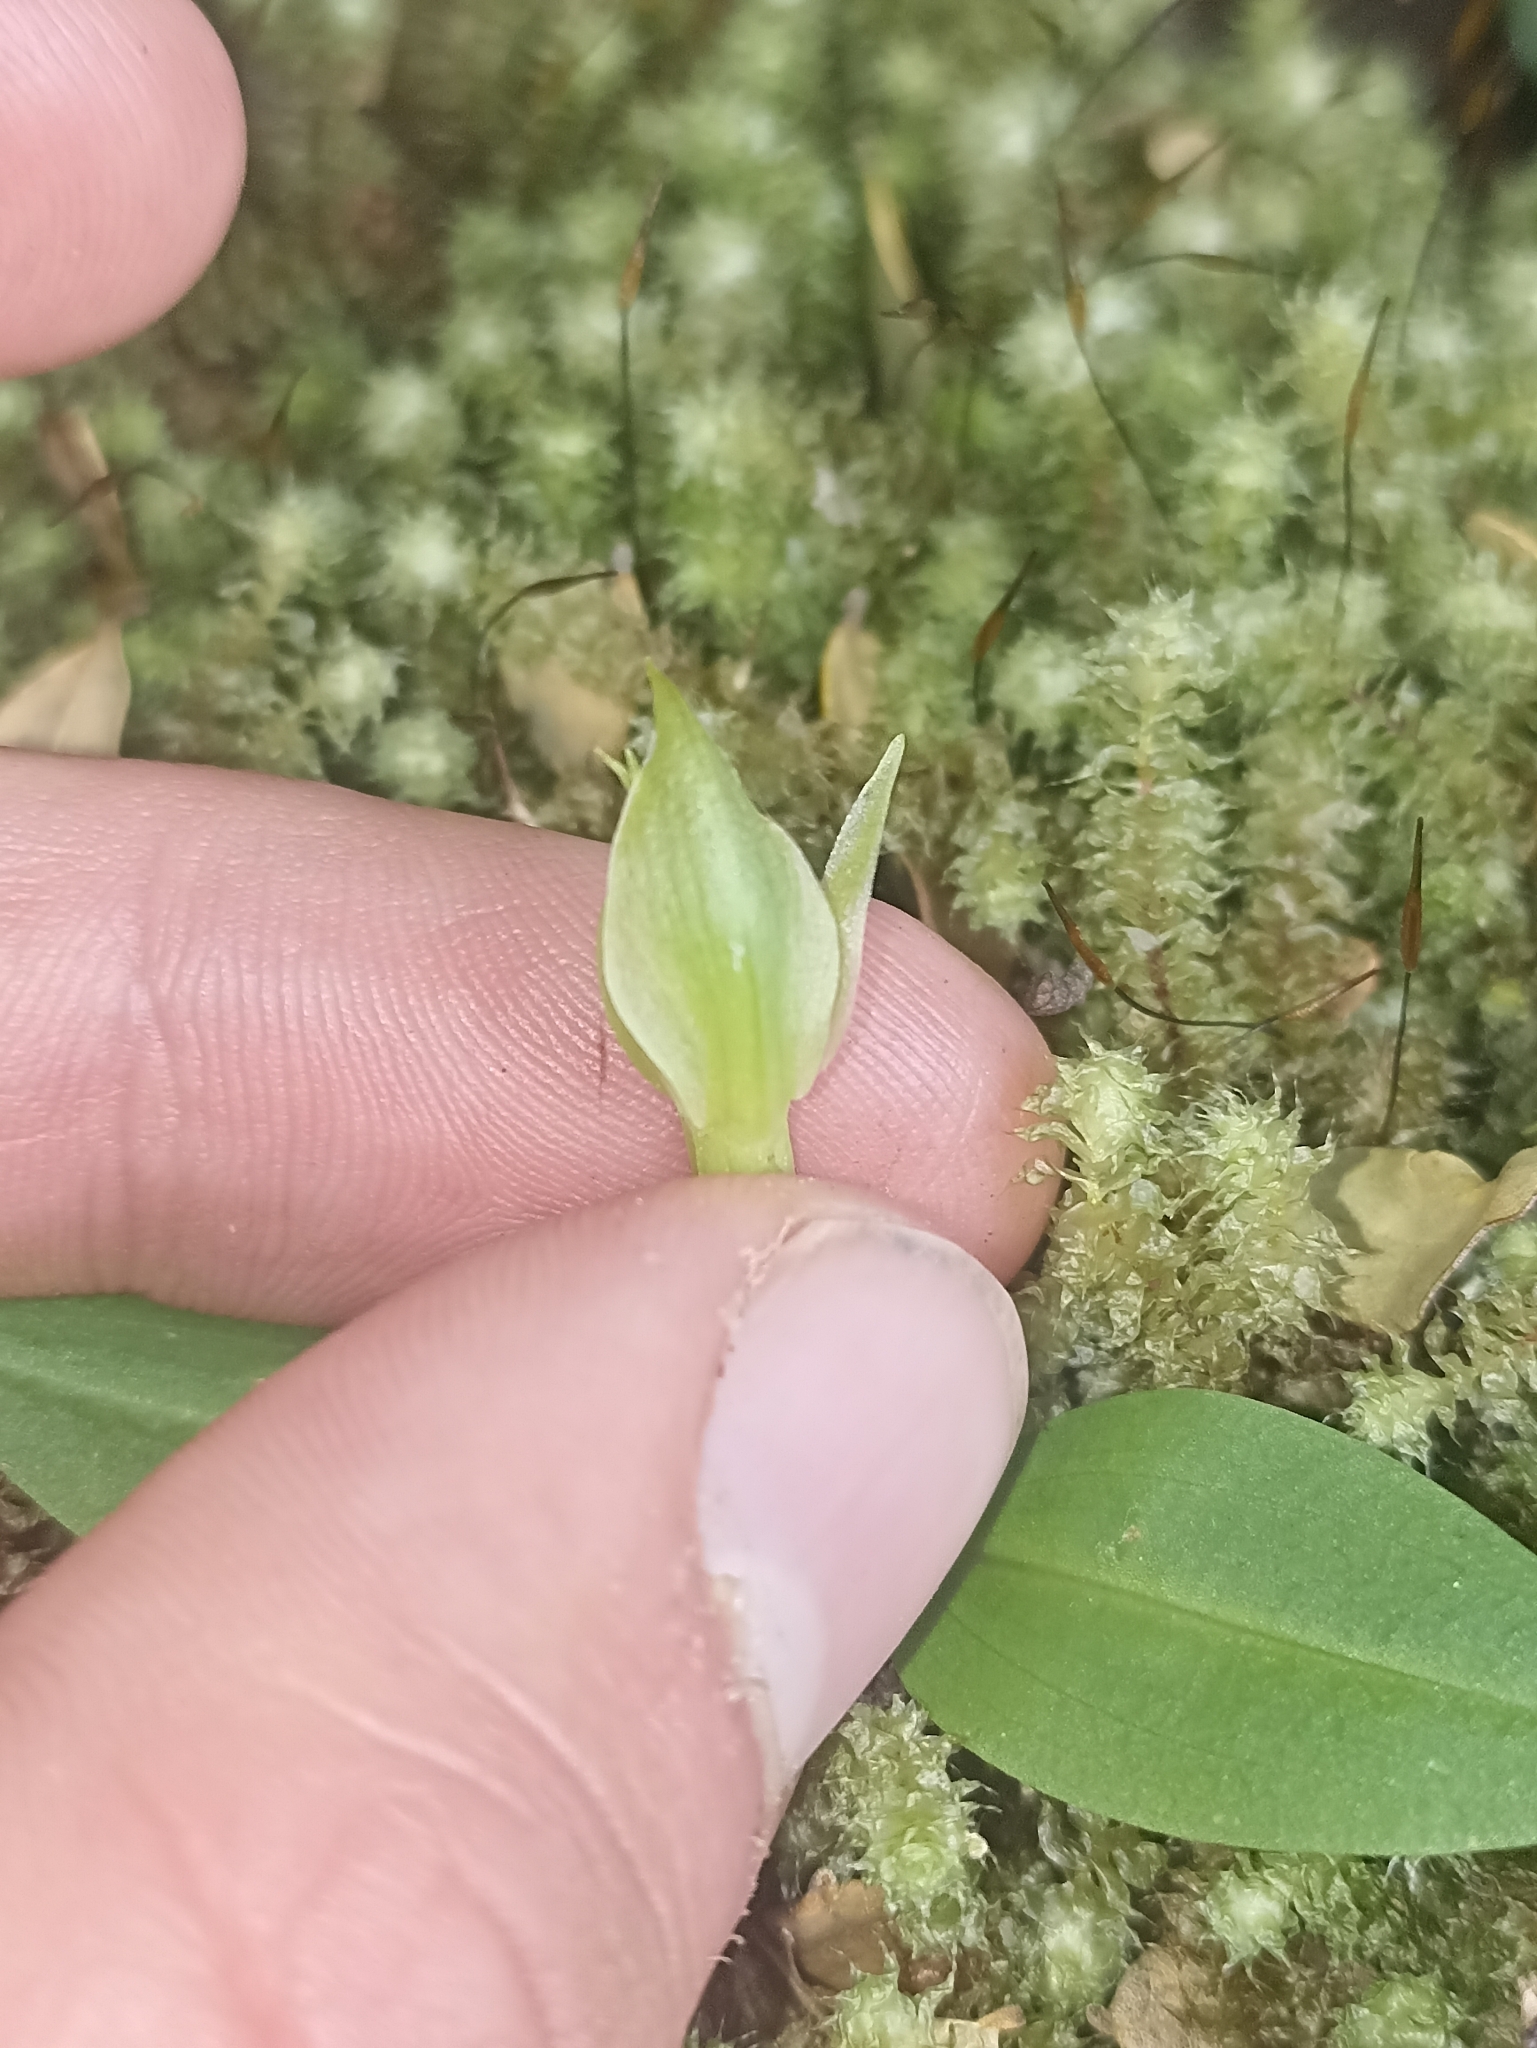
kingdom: Plantae
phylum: Tracheophyta
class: Liliopsida
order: Asparagales
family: Orchidaceae
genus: Chiloglottis
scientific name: Chiloglottis cornuta
